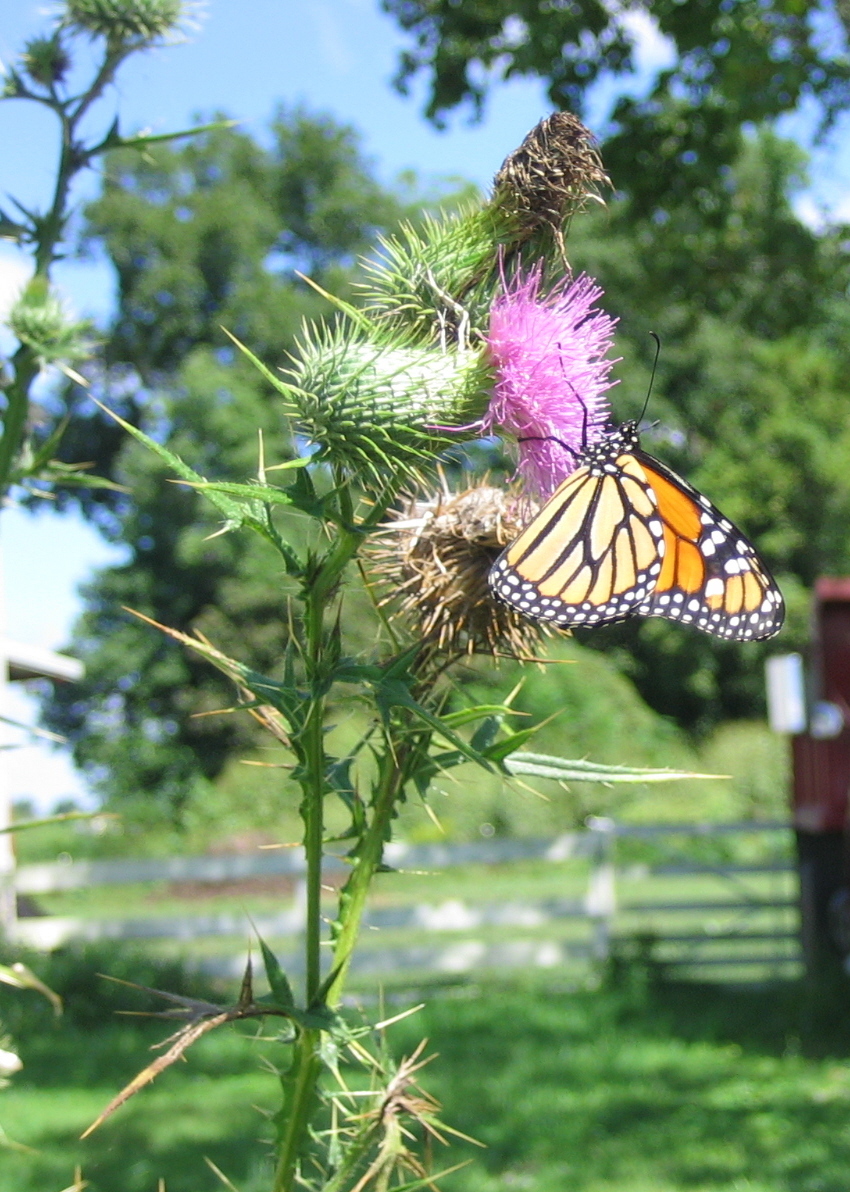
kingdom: Animalia
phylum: Arthropoda
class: Insecta
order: Lepidoptera
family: Nymphalidae
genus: Danaus
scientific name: Danaus plexippus
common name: Monarch
